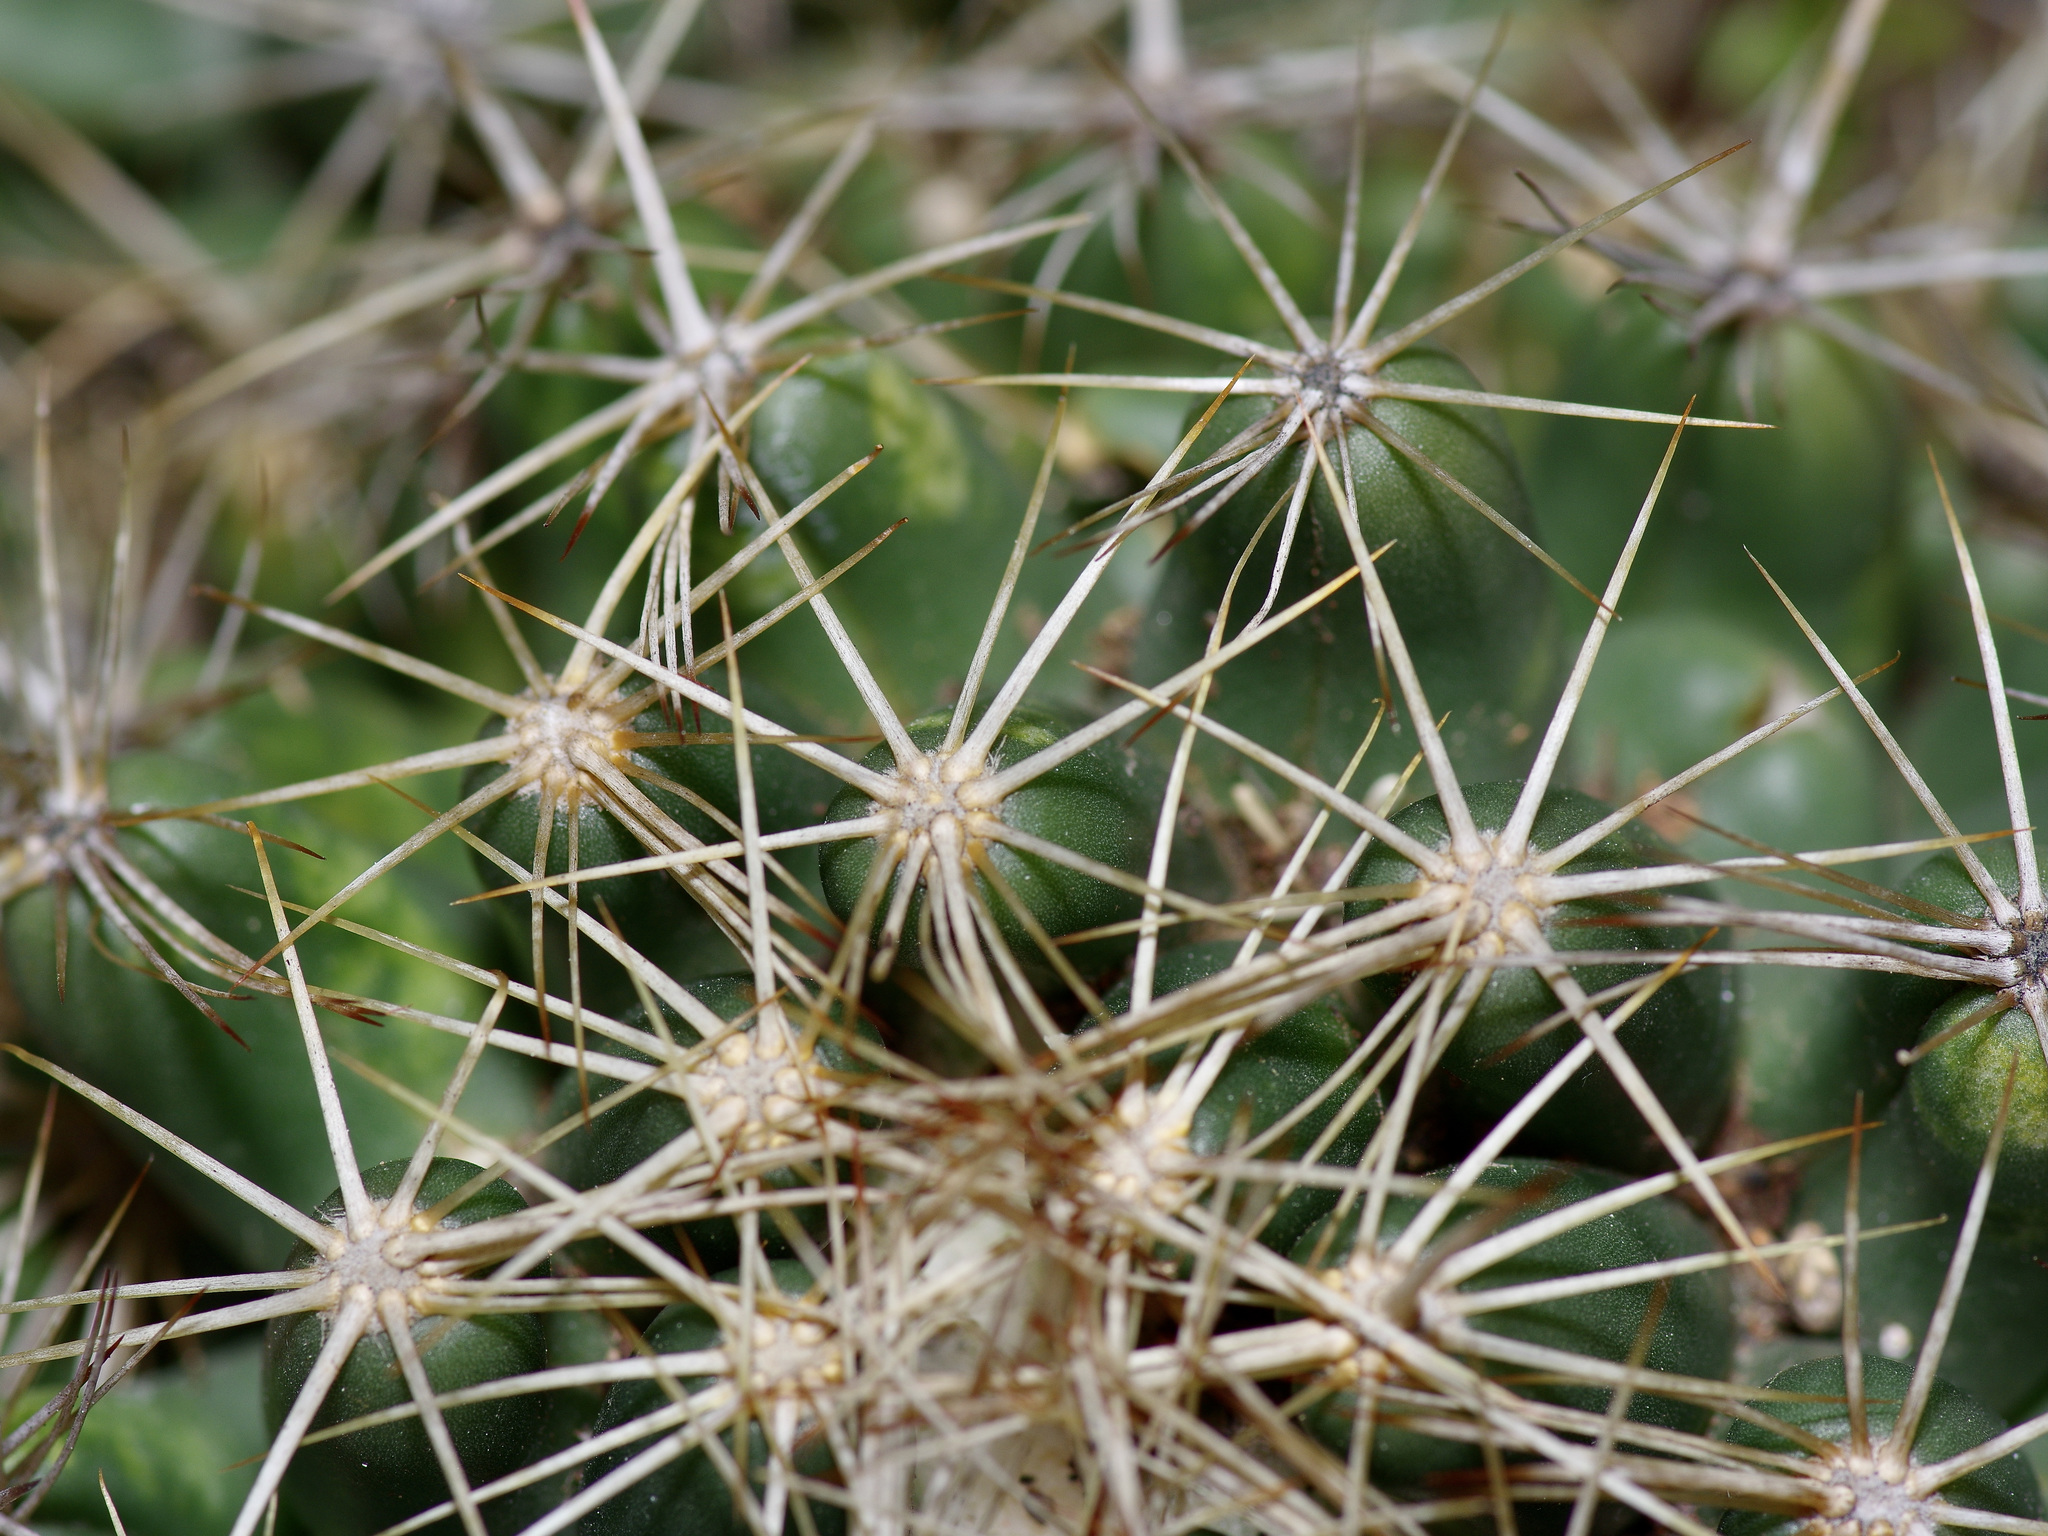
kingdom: Plantae
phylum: Tracheophyta
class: Magnoliopsida
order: Caryophyllales
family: Cactaceae
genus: Coryphantha
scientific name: Coryphantha sulcata
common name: Finger cactus
